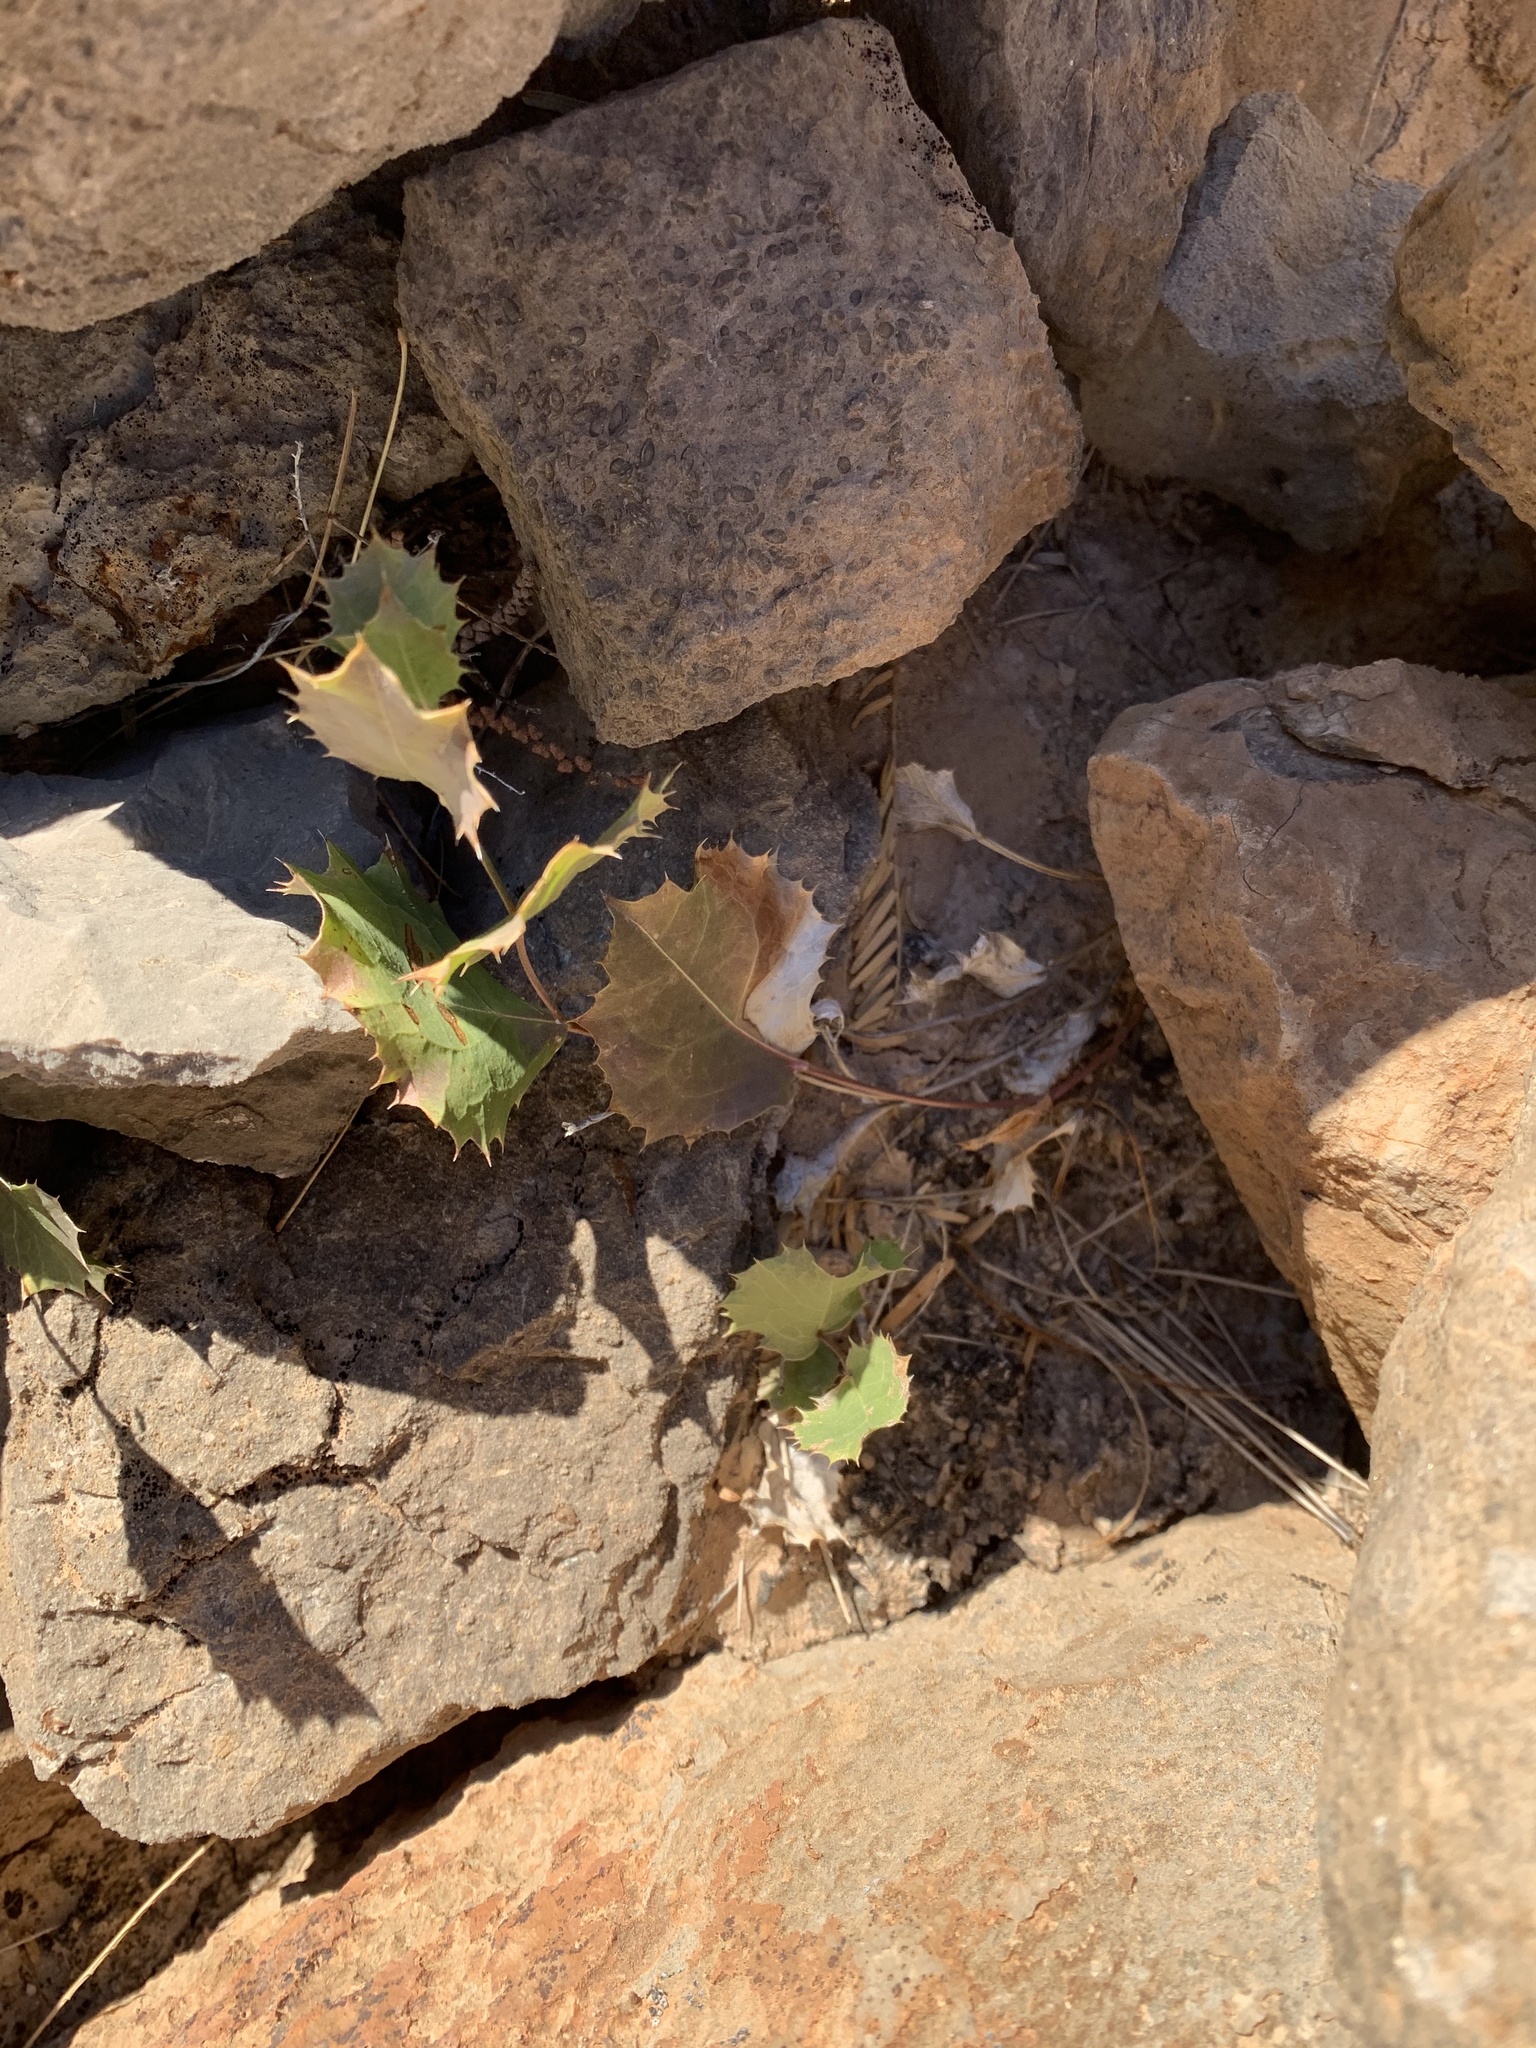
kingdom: Plantae
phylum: Tracheophyta
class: Magnoliopsida
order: Asterales
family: Asteraceae
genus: Acourtia
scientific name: Acourtia nana
